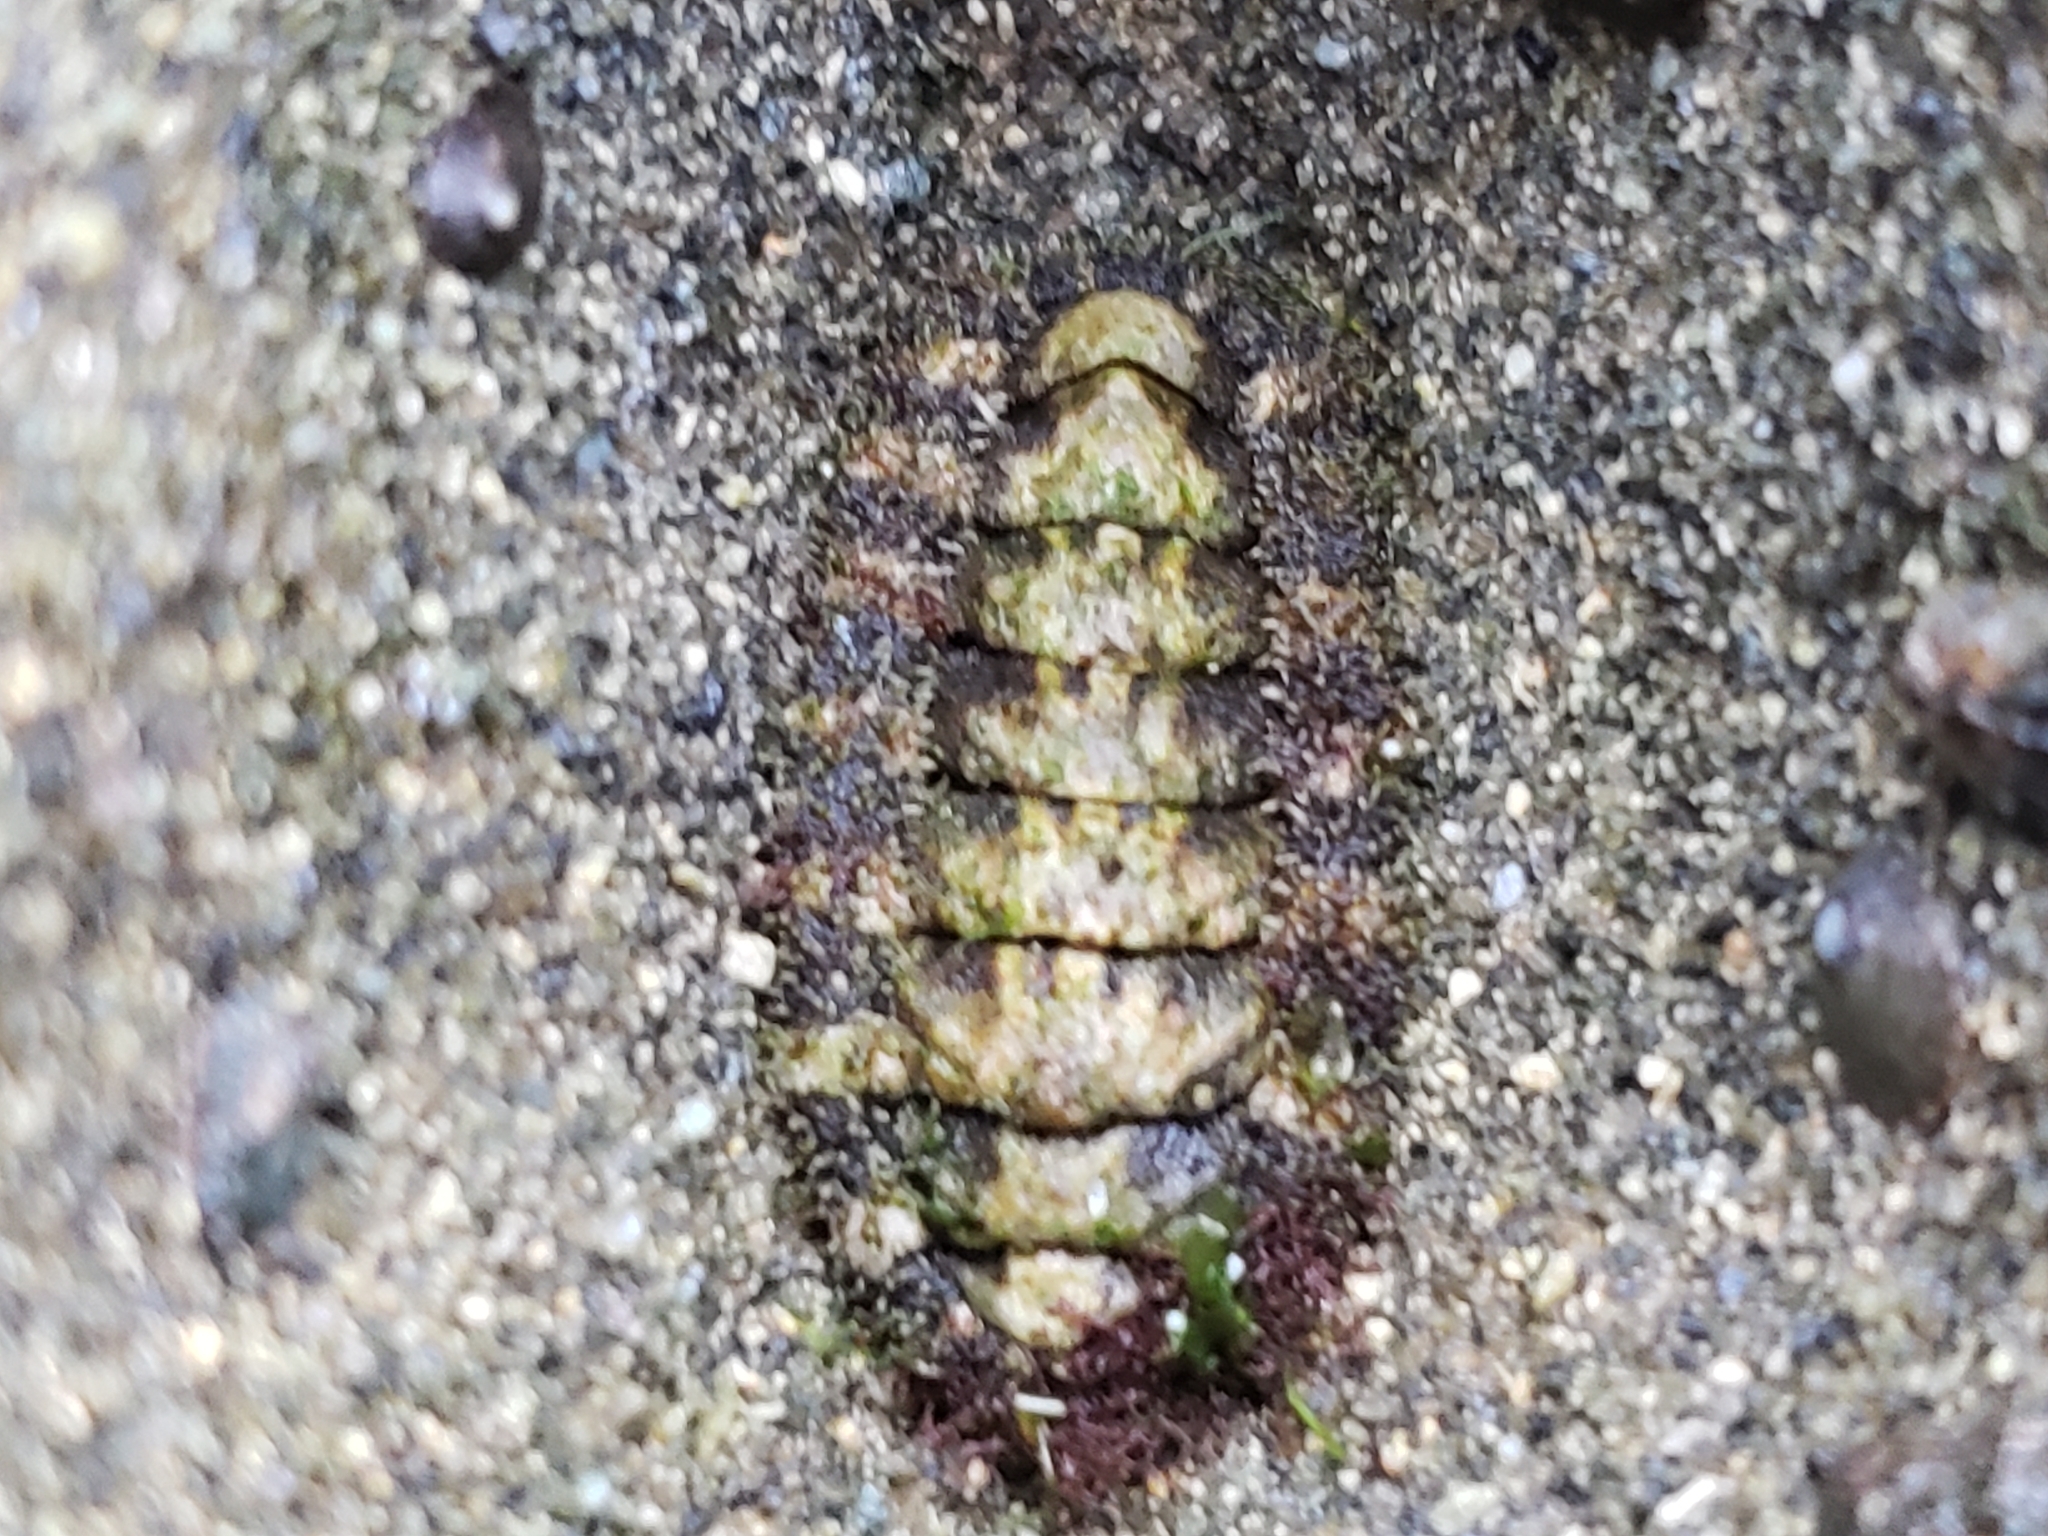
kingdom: Animalia
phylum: Mollusca
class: Polyplacophora
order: Chitonida
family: Tonicellidae
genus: Nuttallina
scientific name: Nuttallina californica
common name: California nuttall chiton
